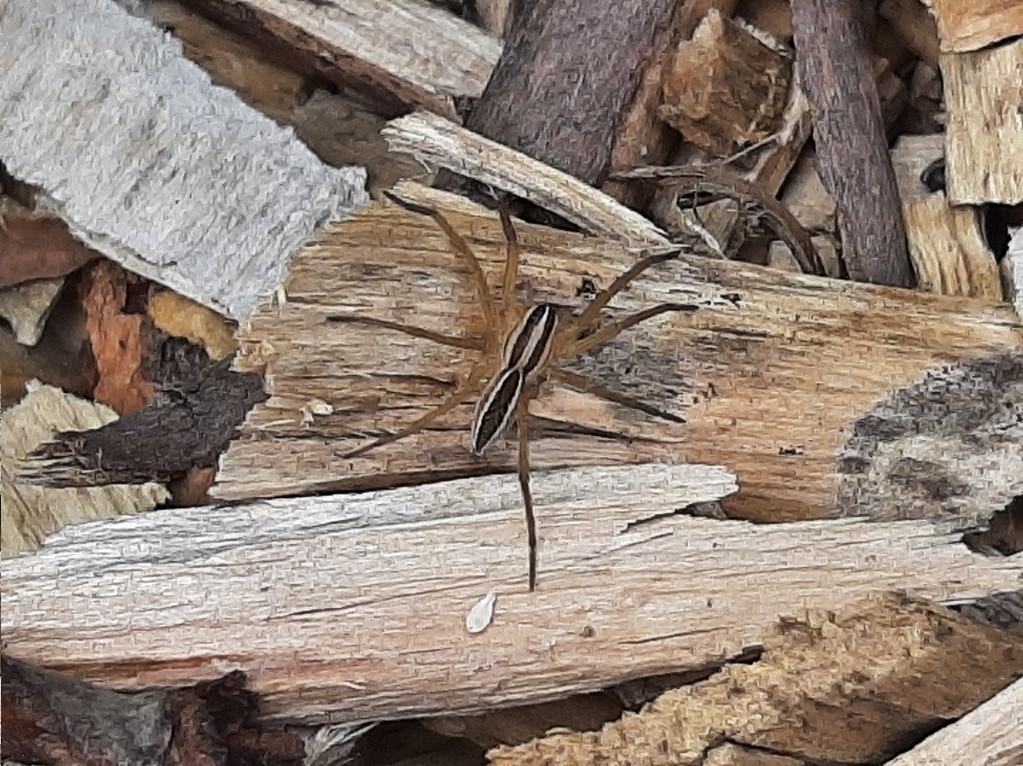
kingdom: Animalia
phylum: Arthropoda
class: Arachnida
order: Araneae
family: Lycosidae
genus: Rabidosa
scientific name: Rabidosa rabida
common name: Rabid wolf spider
